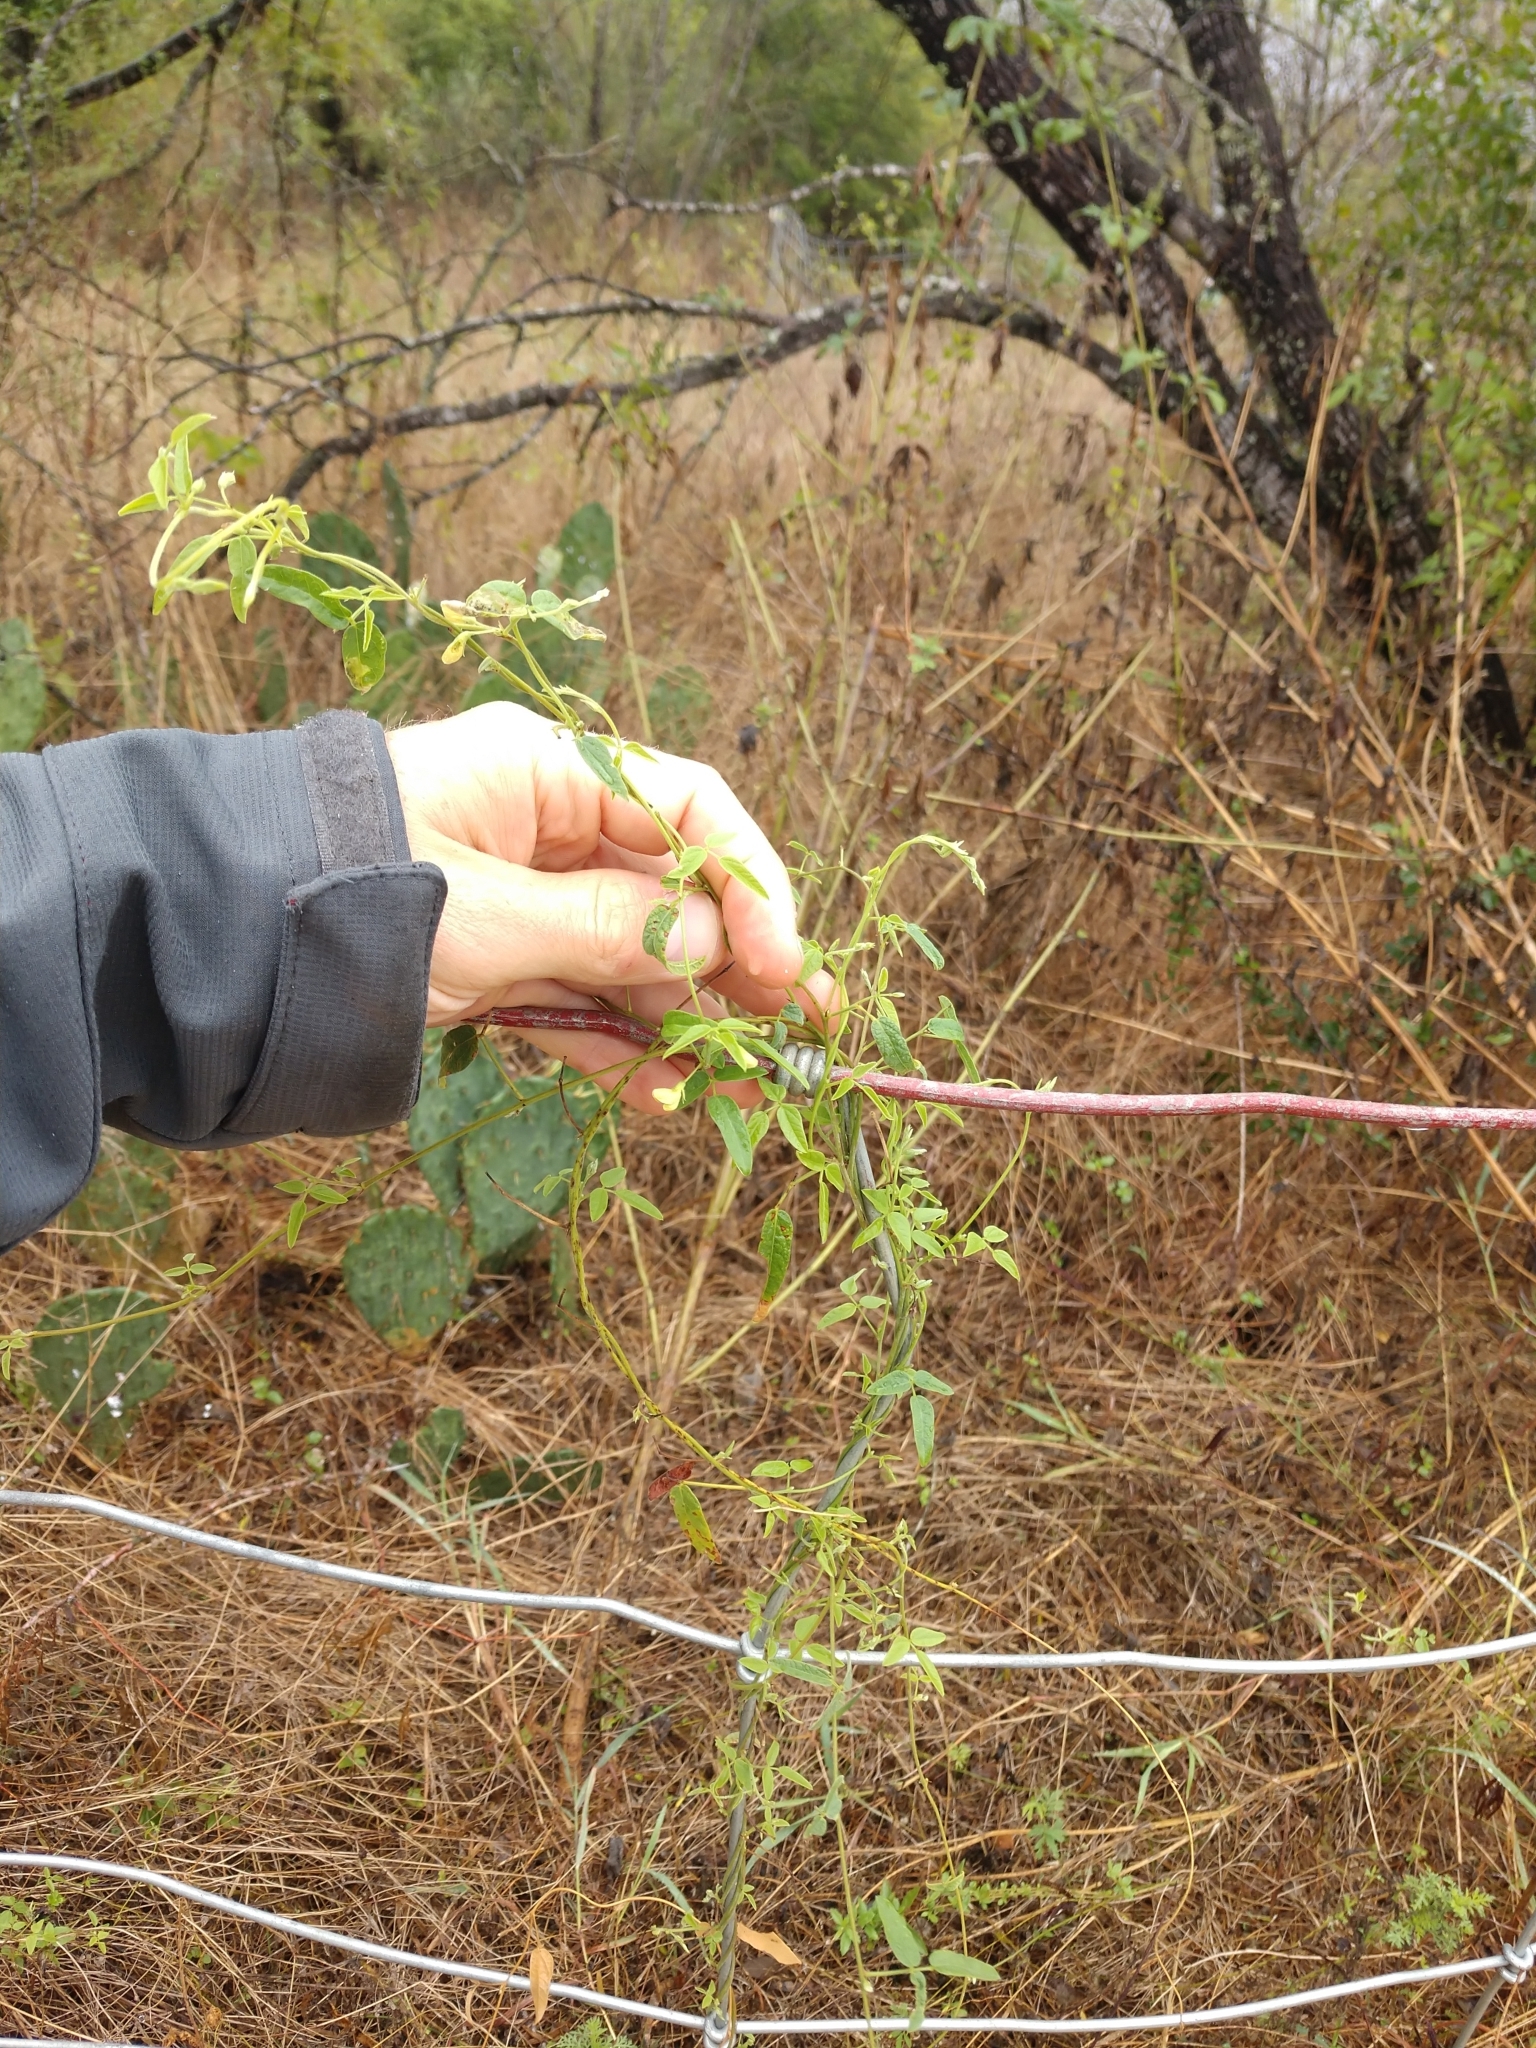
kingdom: Plantae
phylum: Tracheophyta
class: Magnoliopsida
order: Fabales
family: Fabaceae
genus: Rhynchosia
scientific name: Rhynchosia senna
